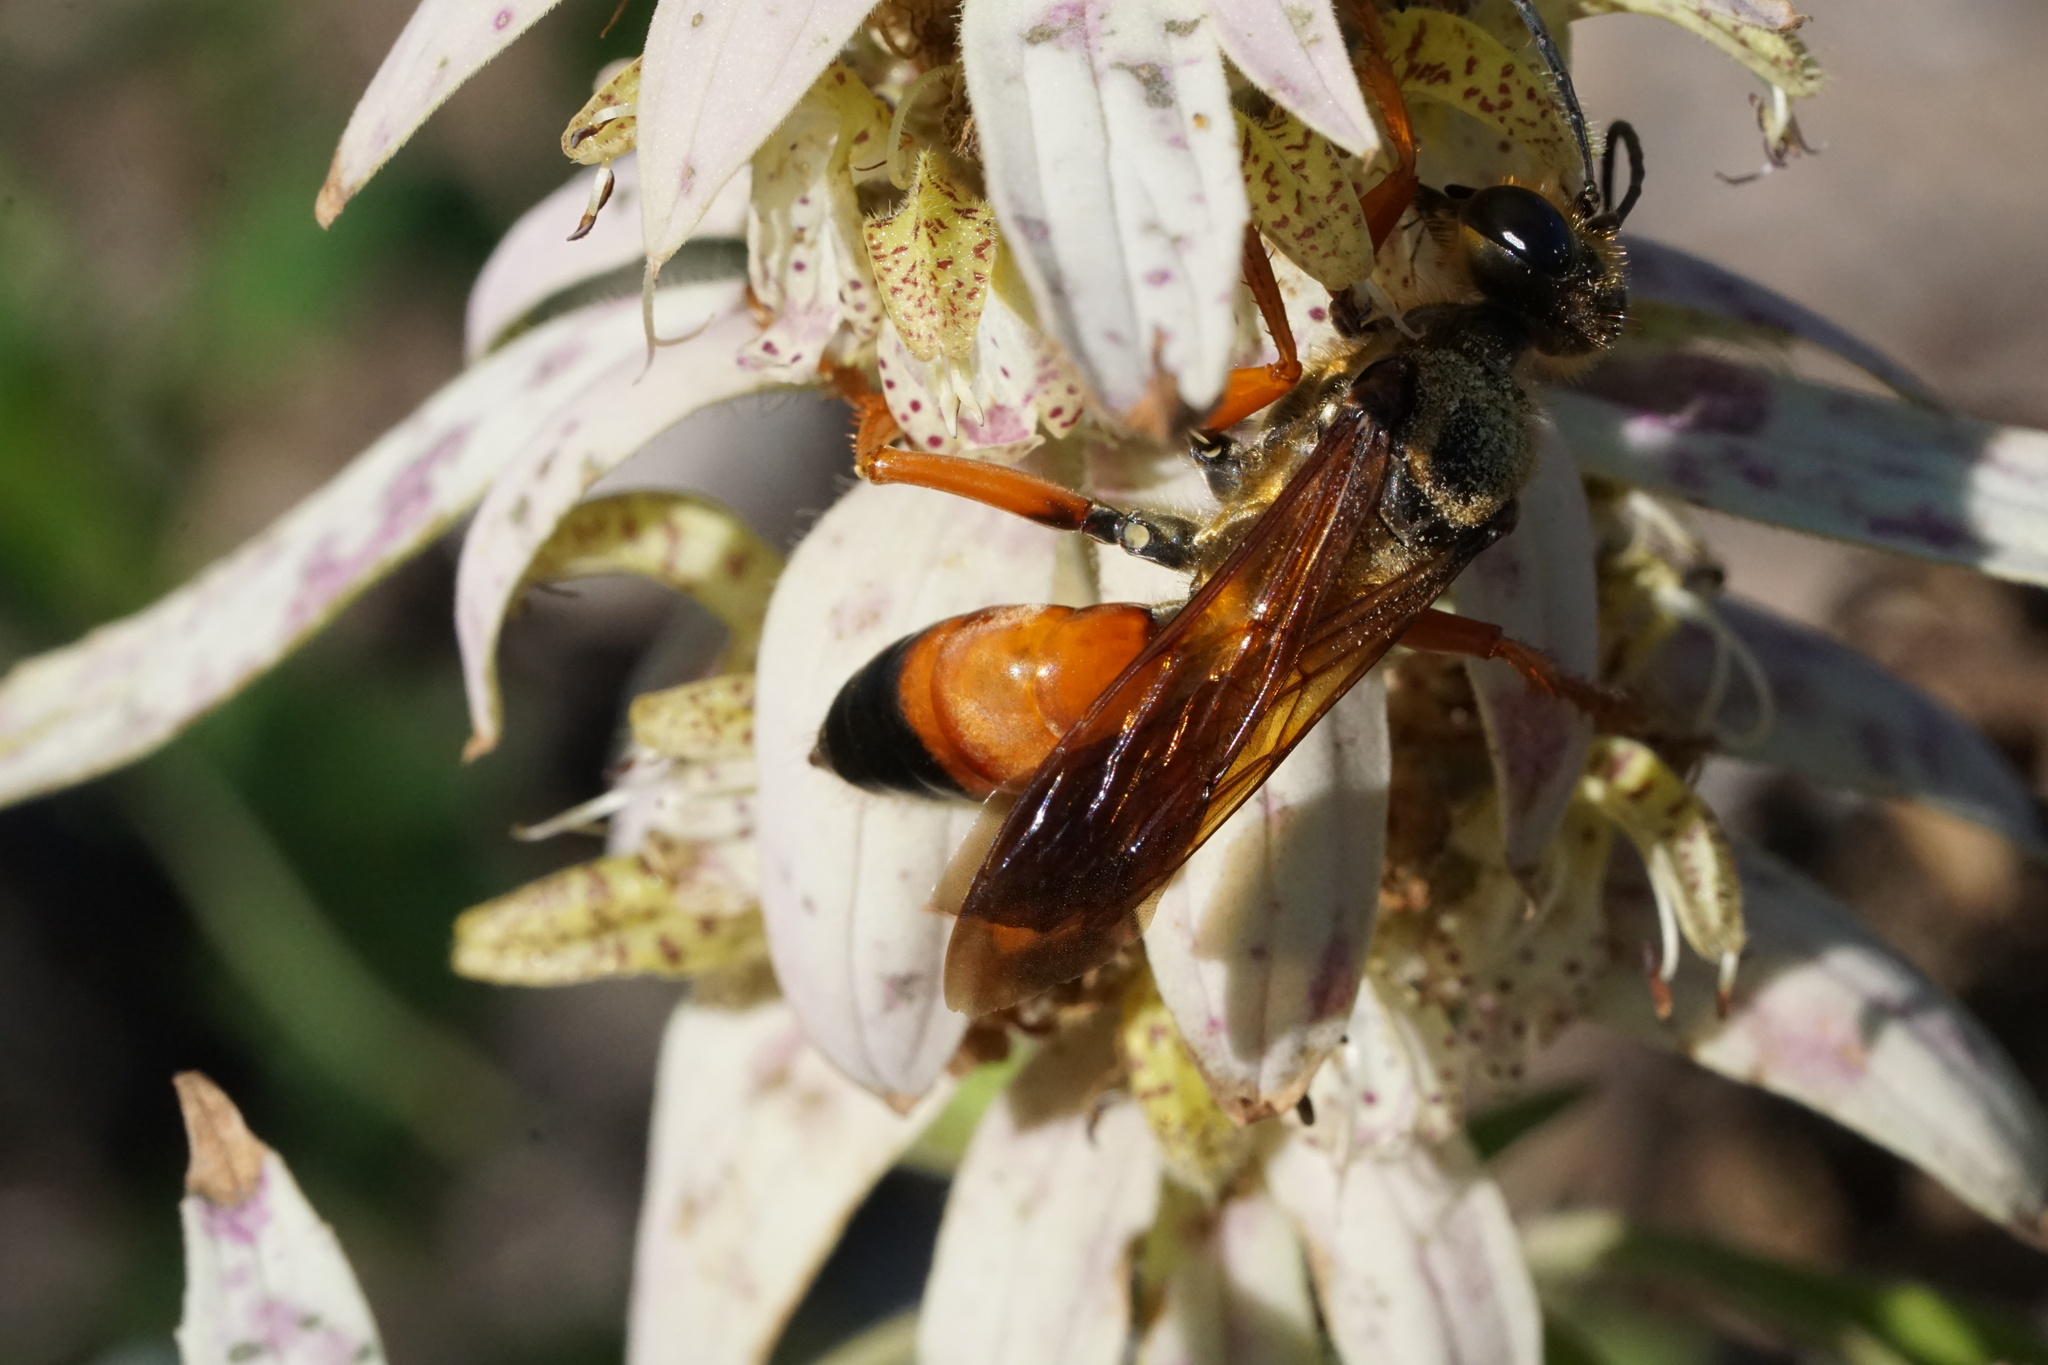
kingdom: Animalia
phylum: Arthropoda
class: Insecta
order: Hymenoptera
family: Sphecidae
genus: Sphex
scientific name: Sphex ichneumoneus
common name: Great golden digger wasp
